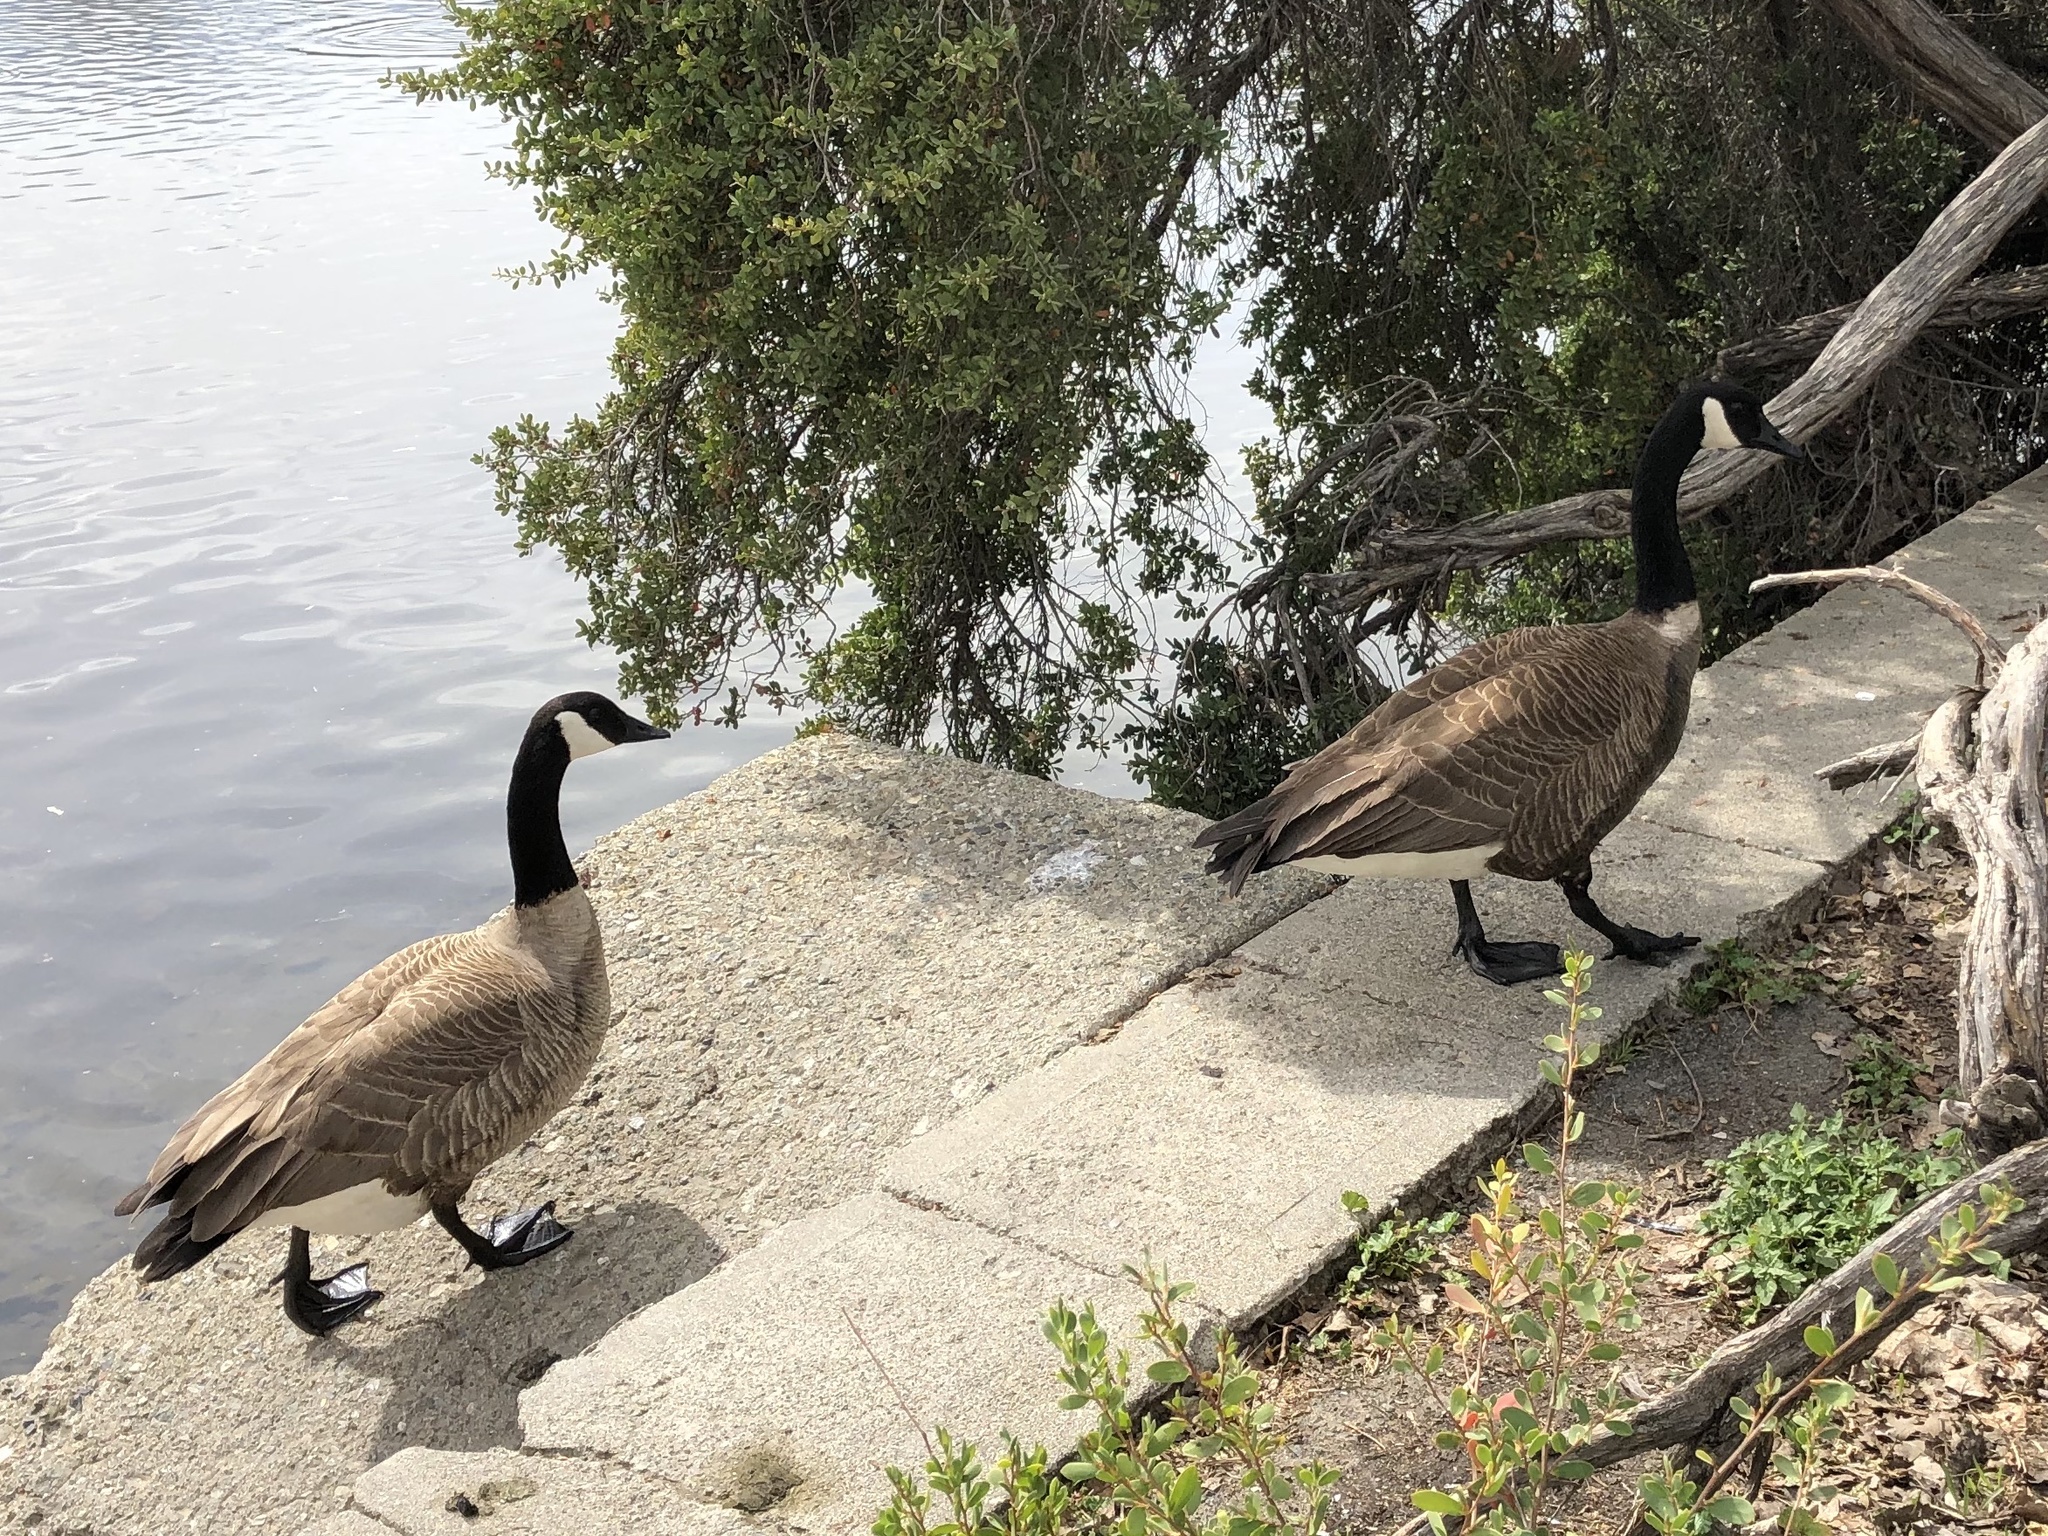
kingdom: Animalia
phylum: Chordata
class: Aves
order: Anseriformes
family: Anatidae
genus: Branta
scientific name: Branta canadensis
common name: Canada goose
